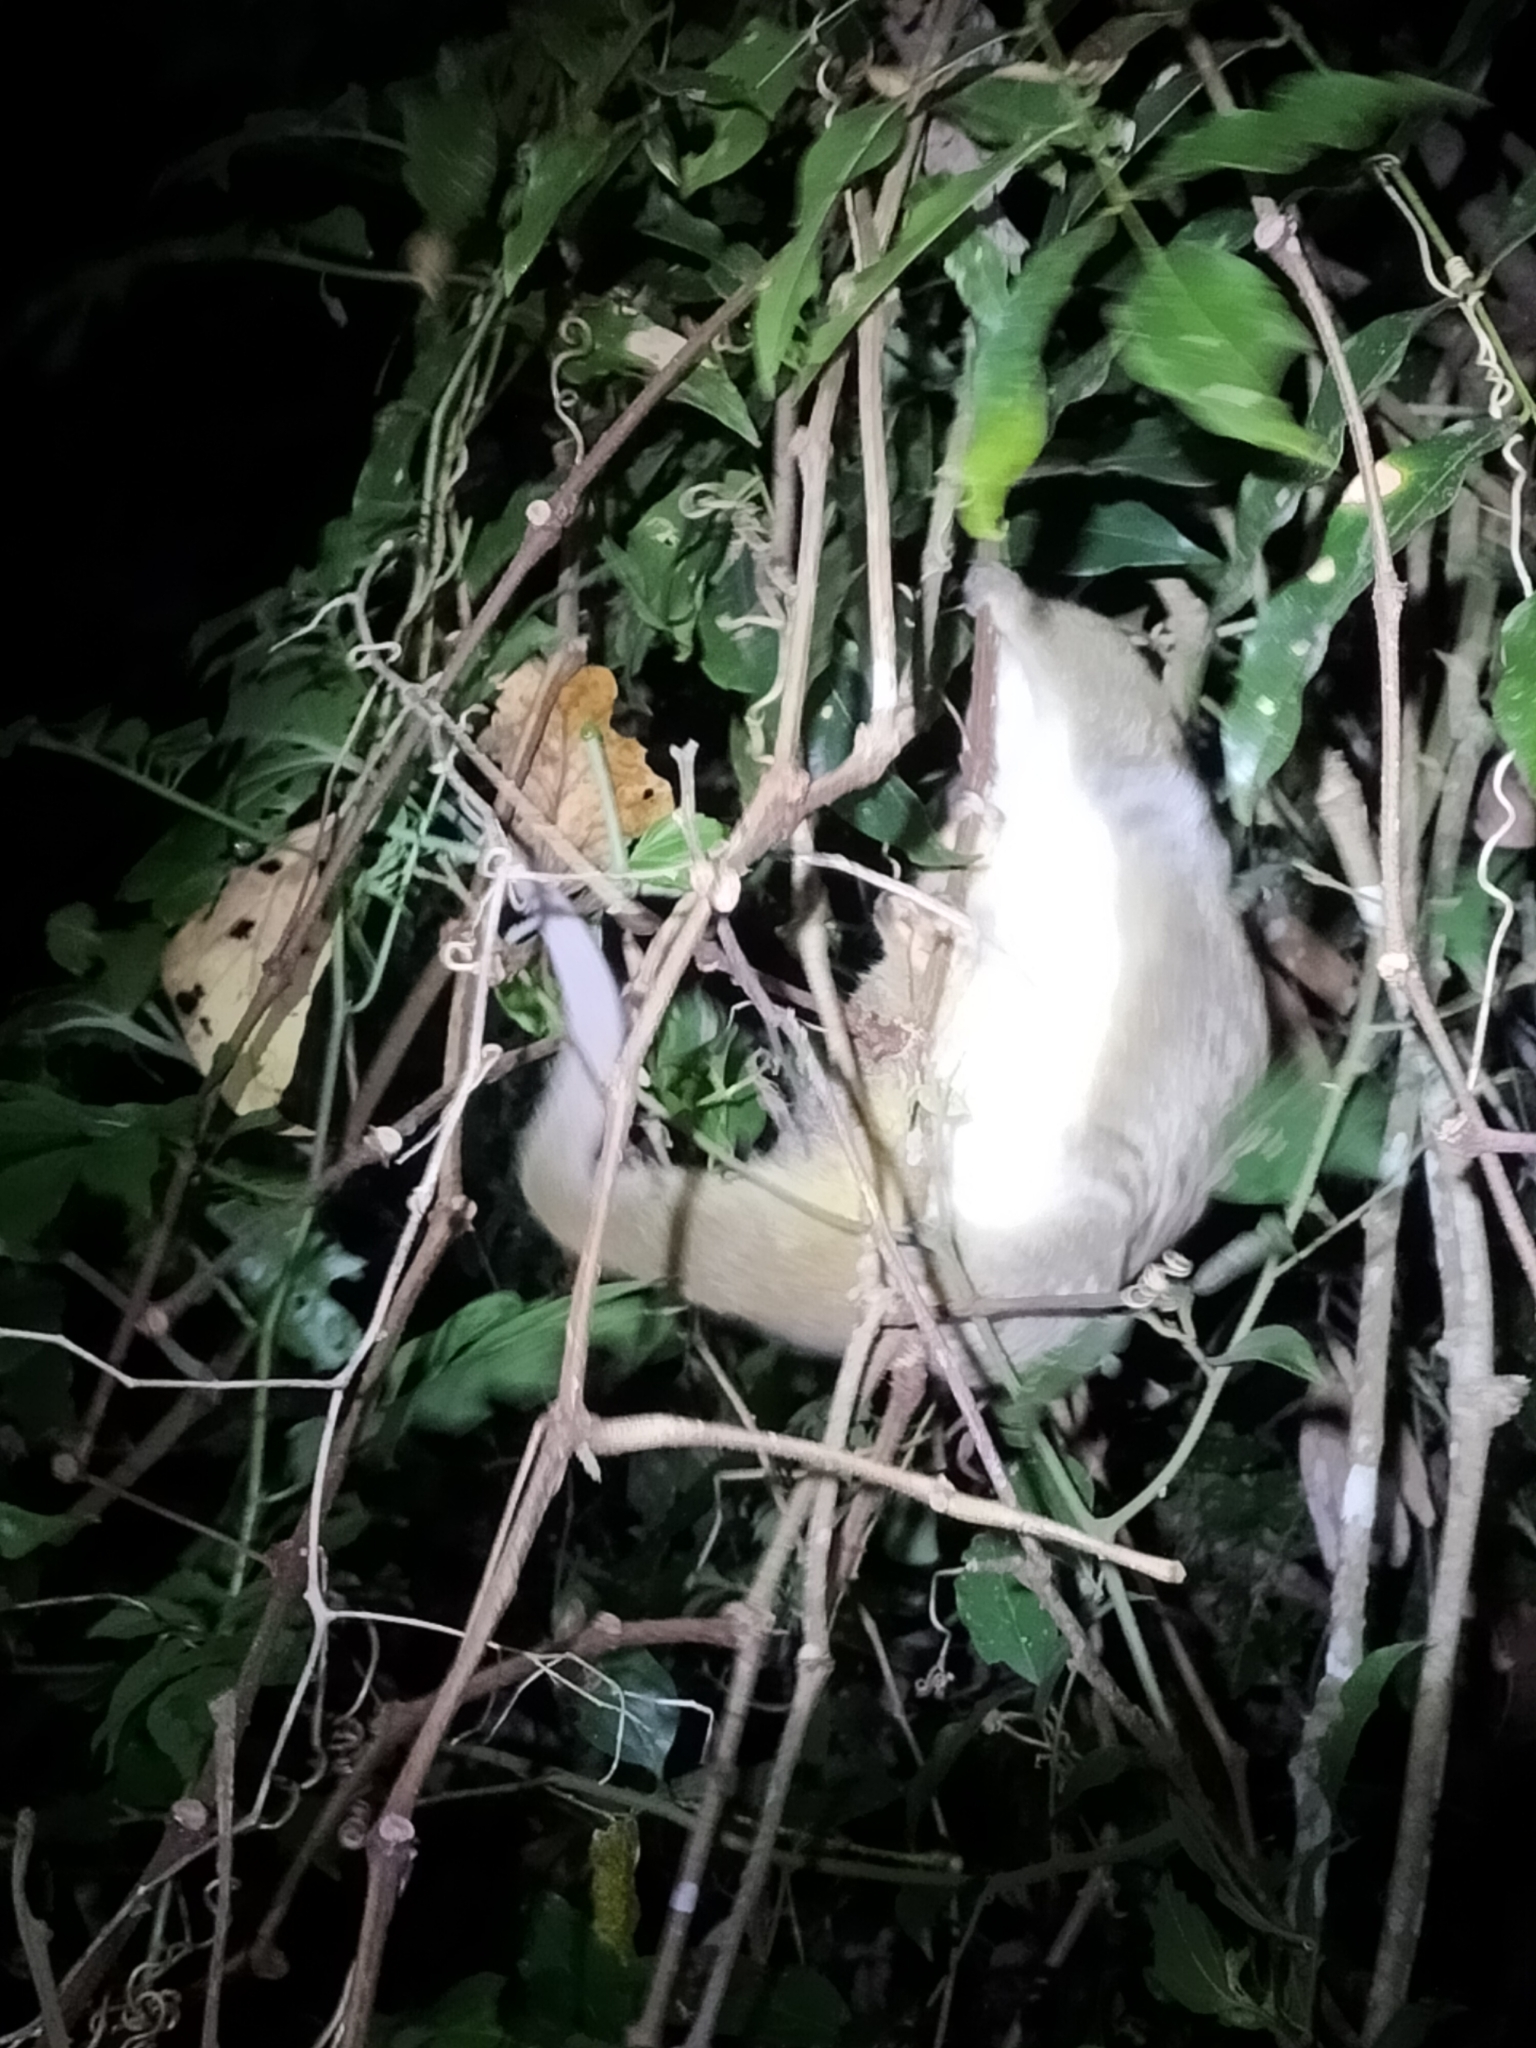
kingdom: Animalia
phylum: Chordata
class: Mammalia
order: Diprotodontia
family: Pseudocheiridae
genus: Pseudochirops
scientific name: Pseudochirops archeri
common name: Green ringtail
